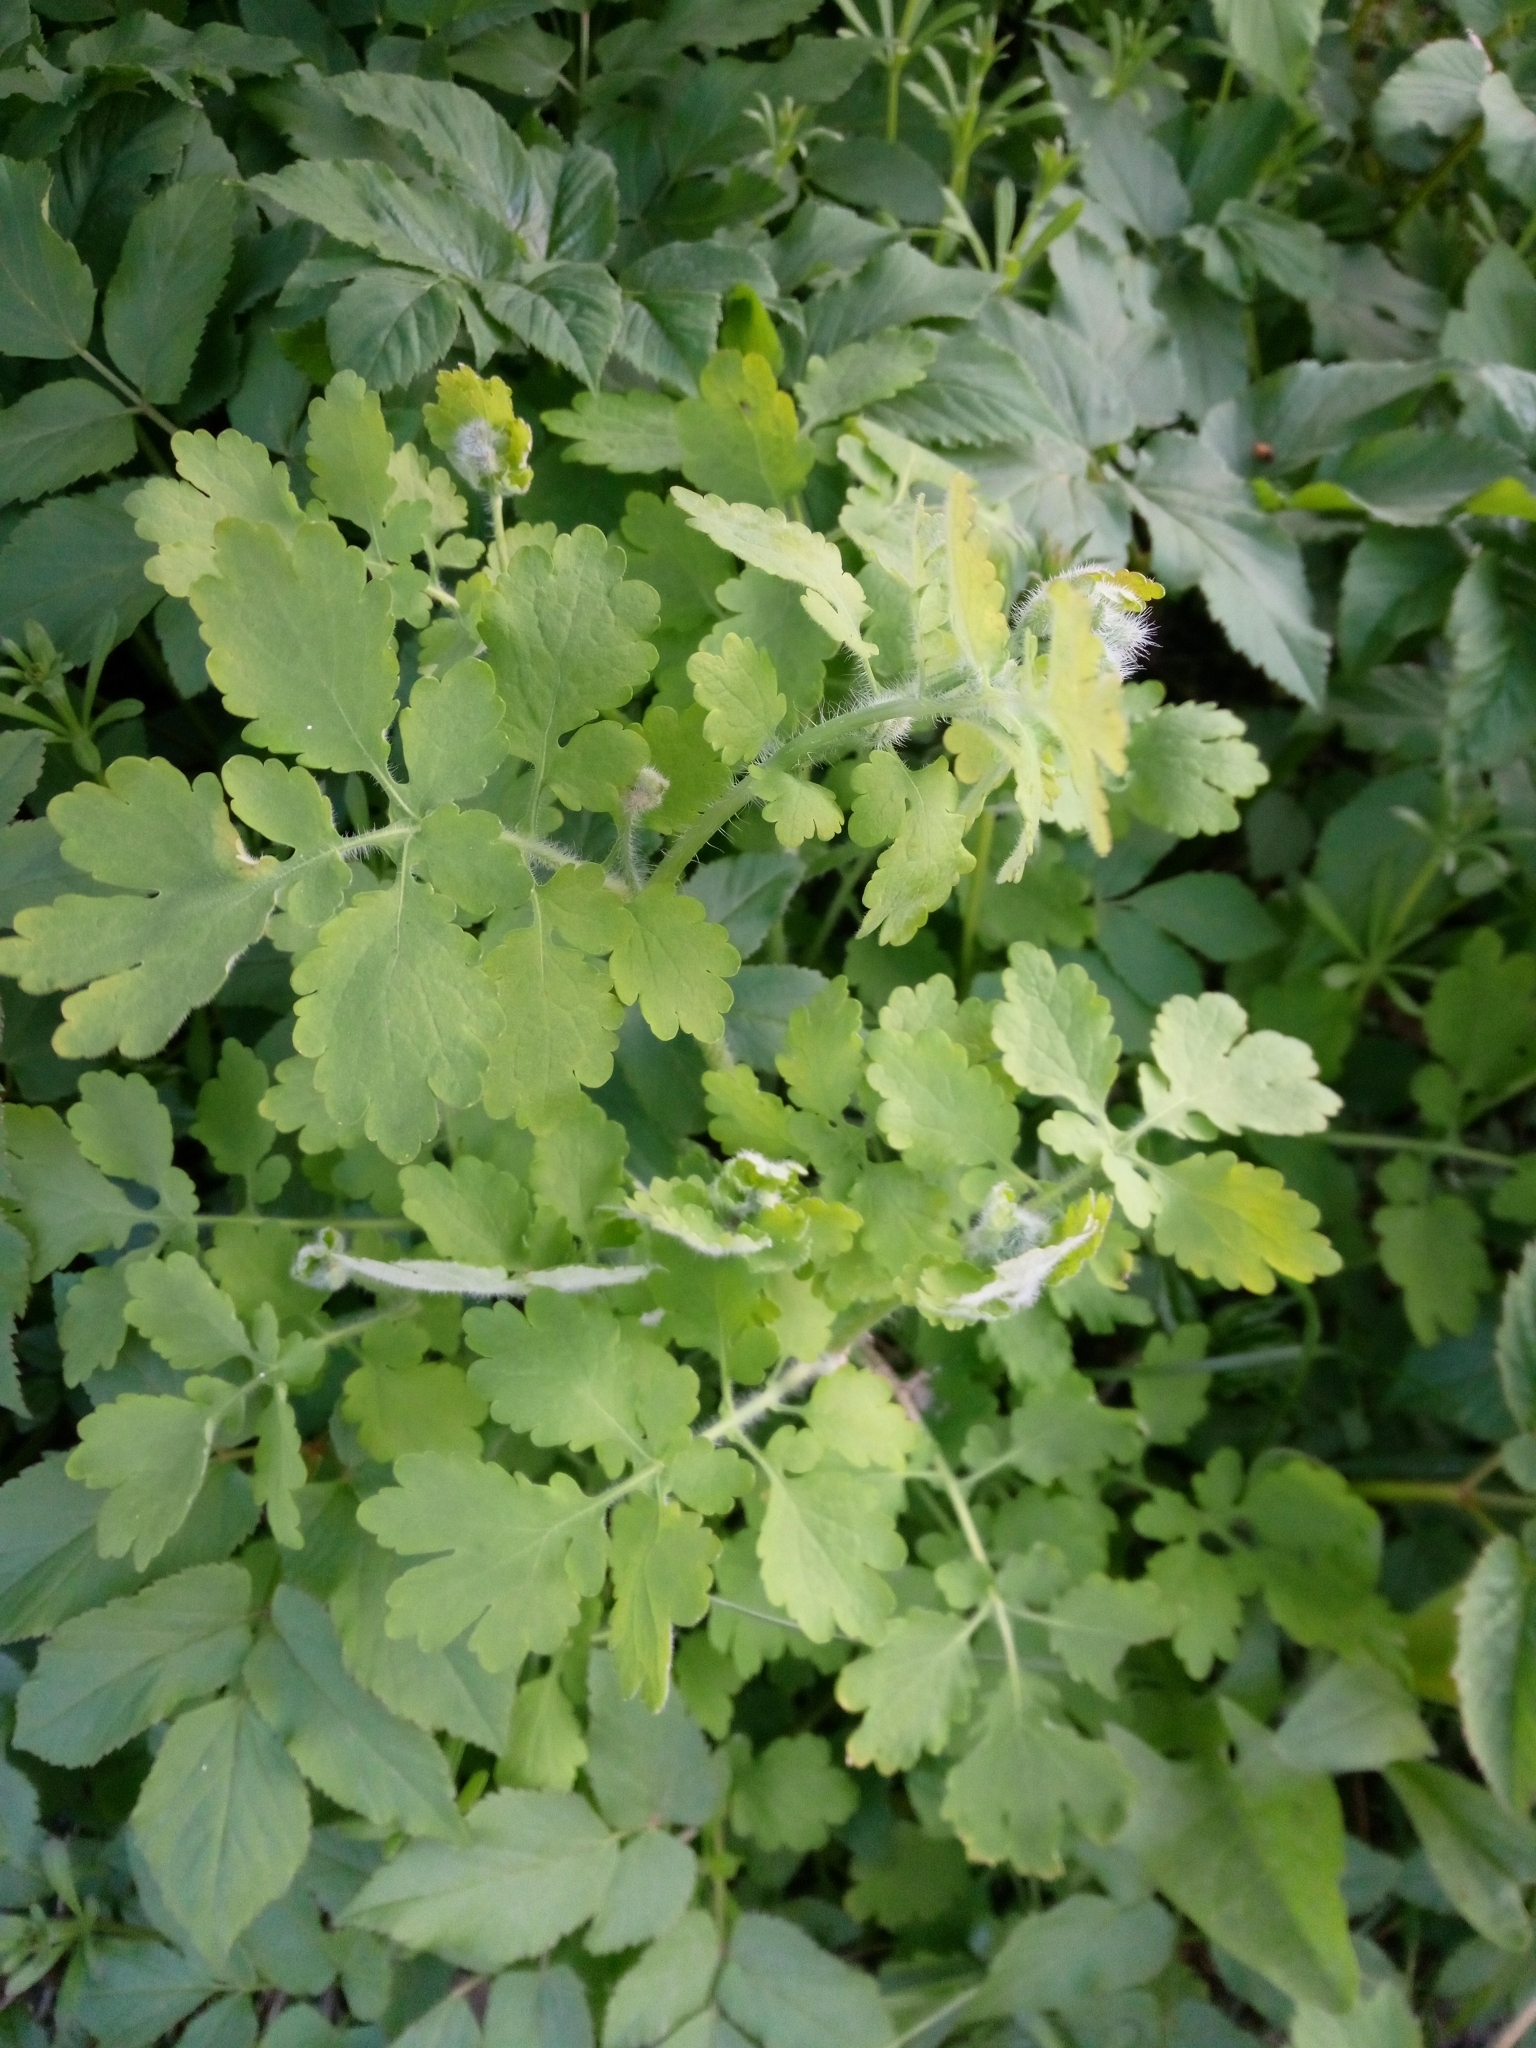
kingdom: Plantae
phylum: Tracheophyta
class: Magnoliopsida
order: Ranunculales
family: Papaveraceae
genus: Chelidonium
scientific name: Chelidonium majus
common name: Greater celandine
